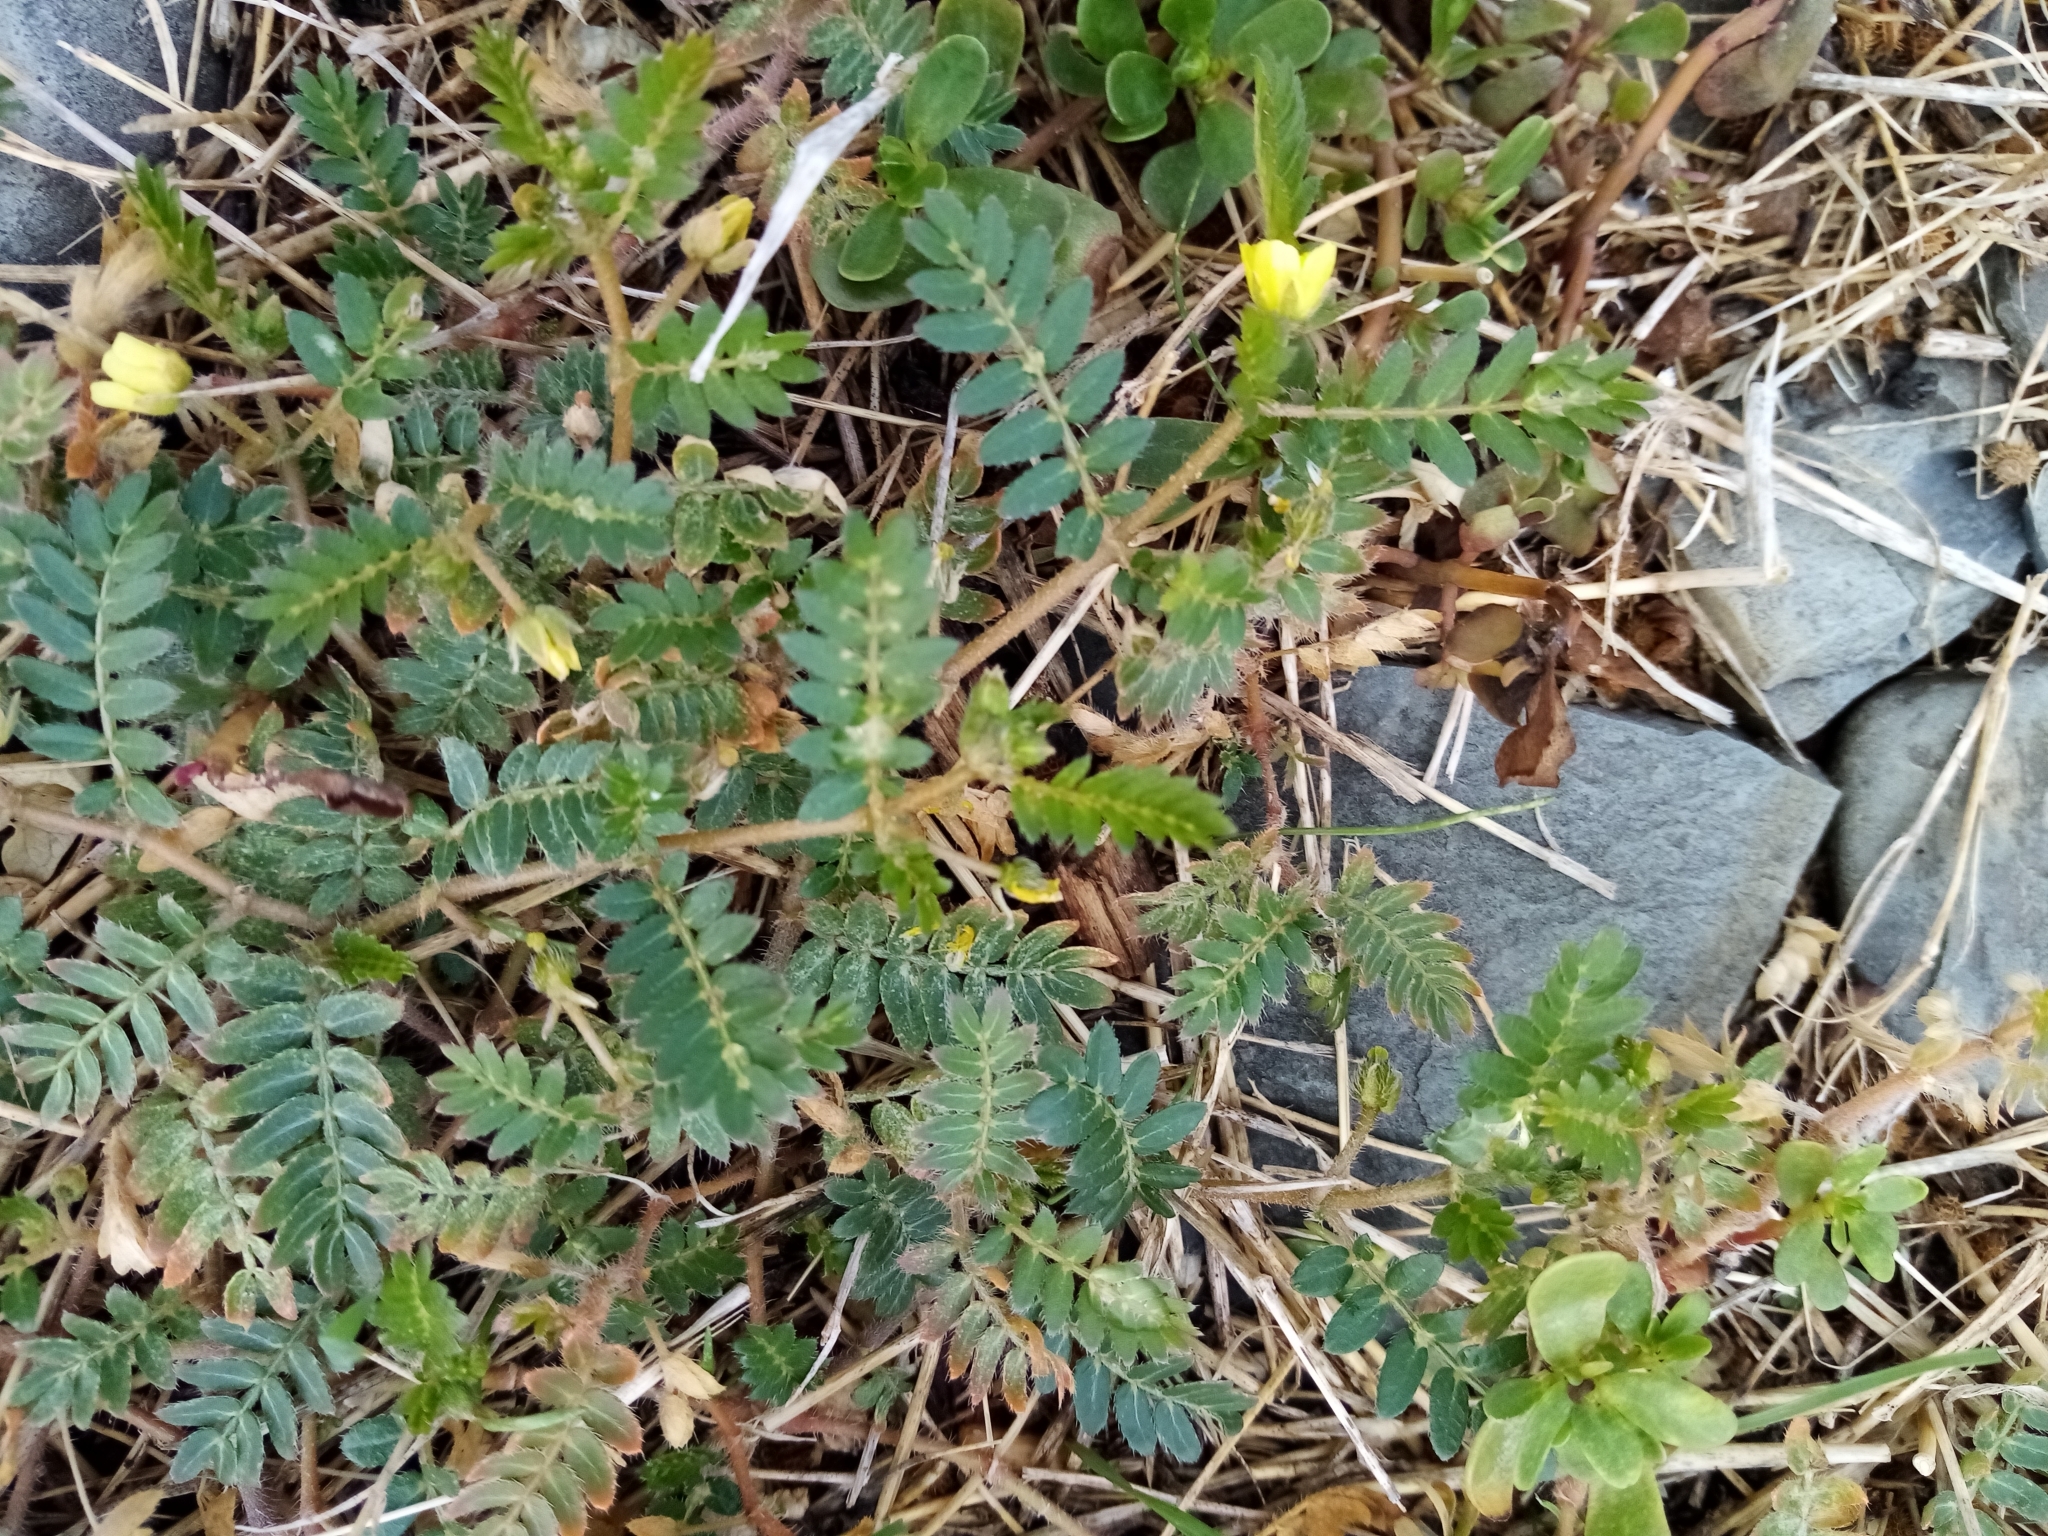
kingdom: Plantae
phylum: Tracheophyta
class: Magnoliopsida
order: Zygophyllales
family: Zygophyllaceae
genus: Tribulus
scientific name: Tribulus terrestris
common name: Puncturevine
